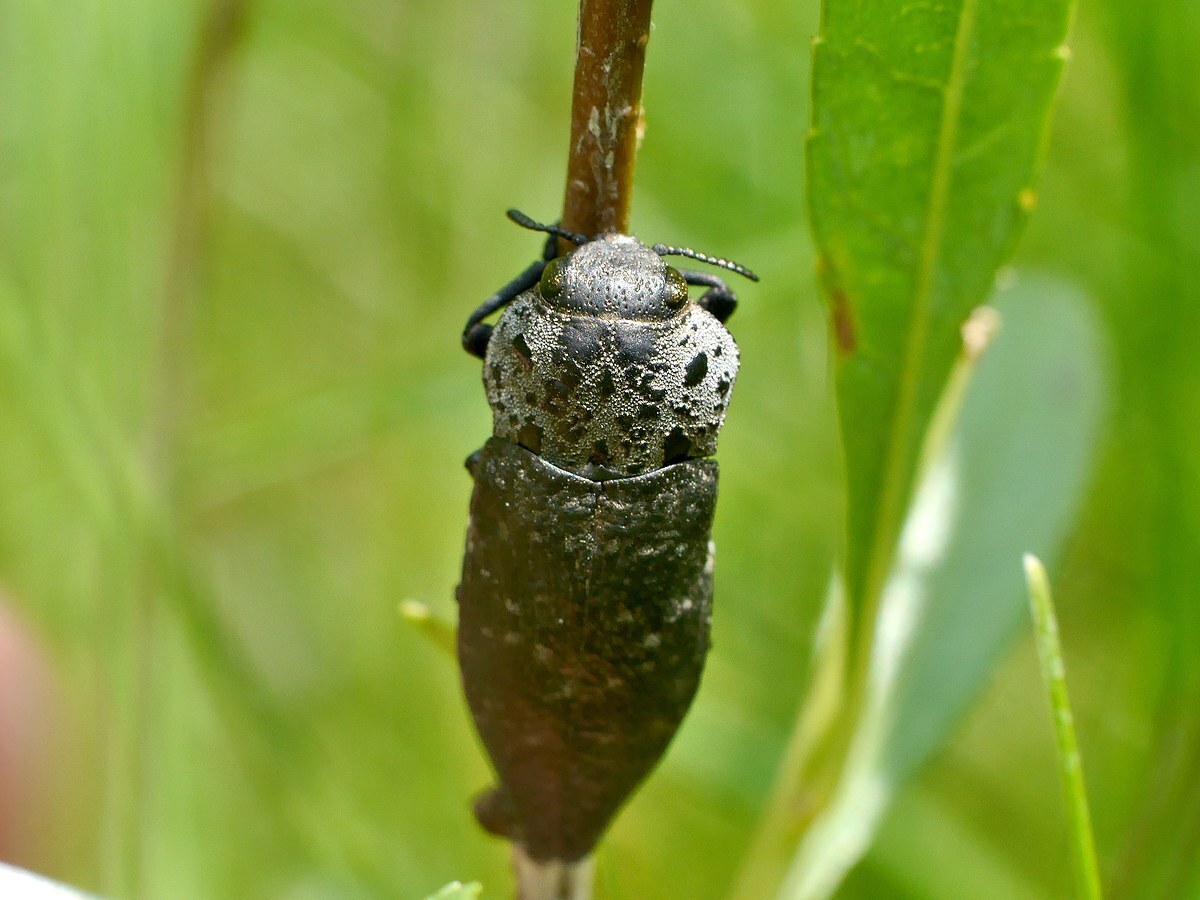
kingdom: Animalia
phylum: Arthropoda
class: Insecta
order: Coleoptera
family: Buprestidae
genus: Capnodis
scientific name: Capnodis tenebrionis
